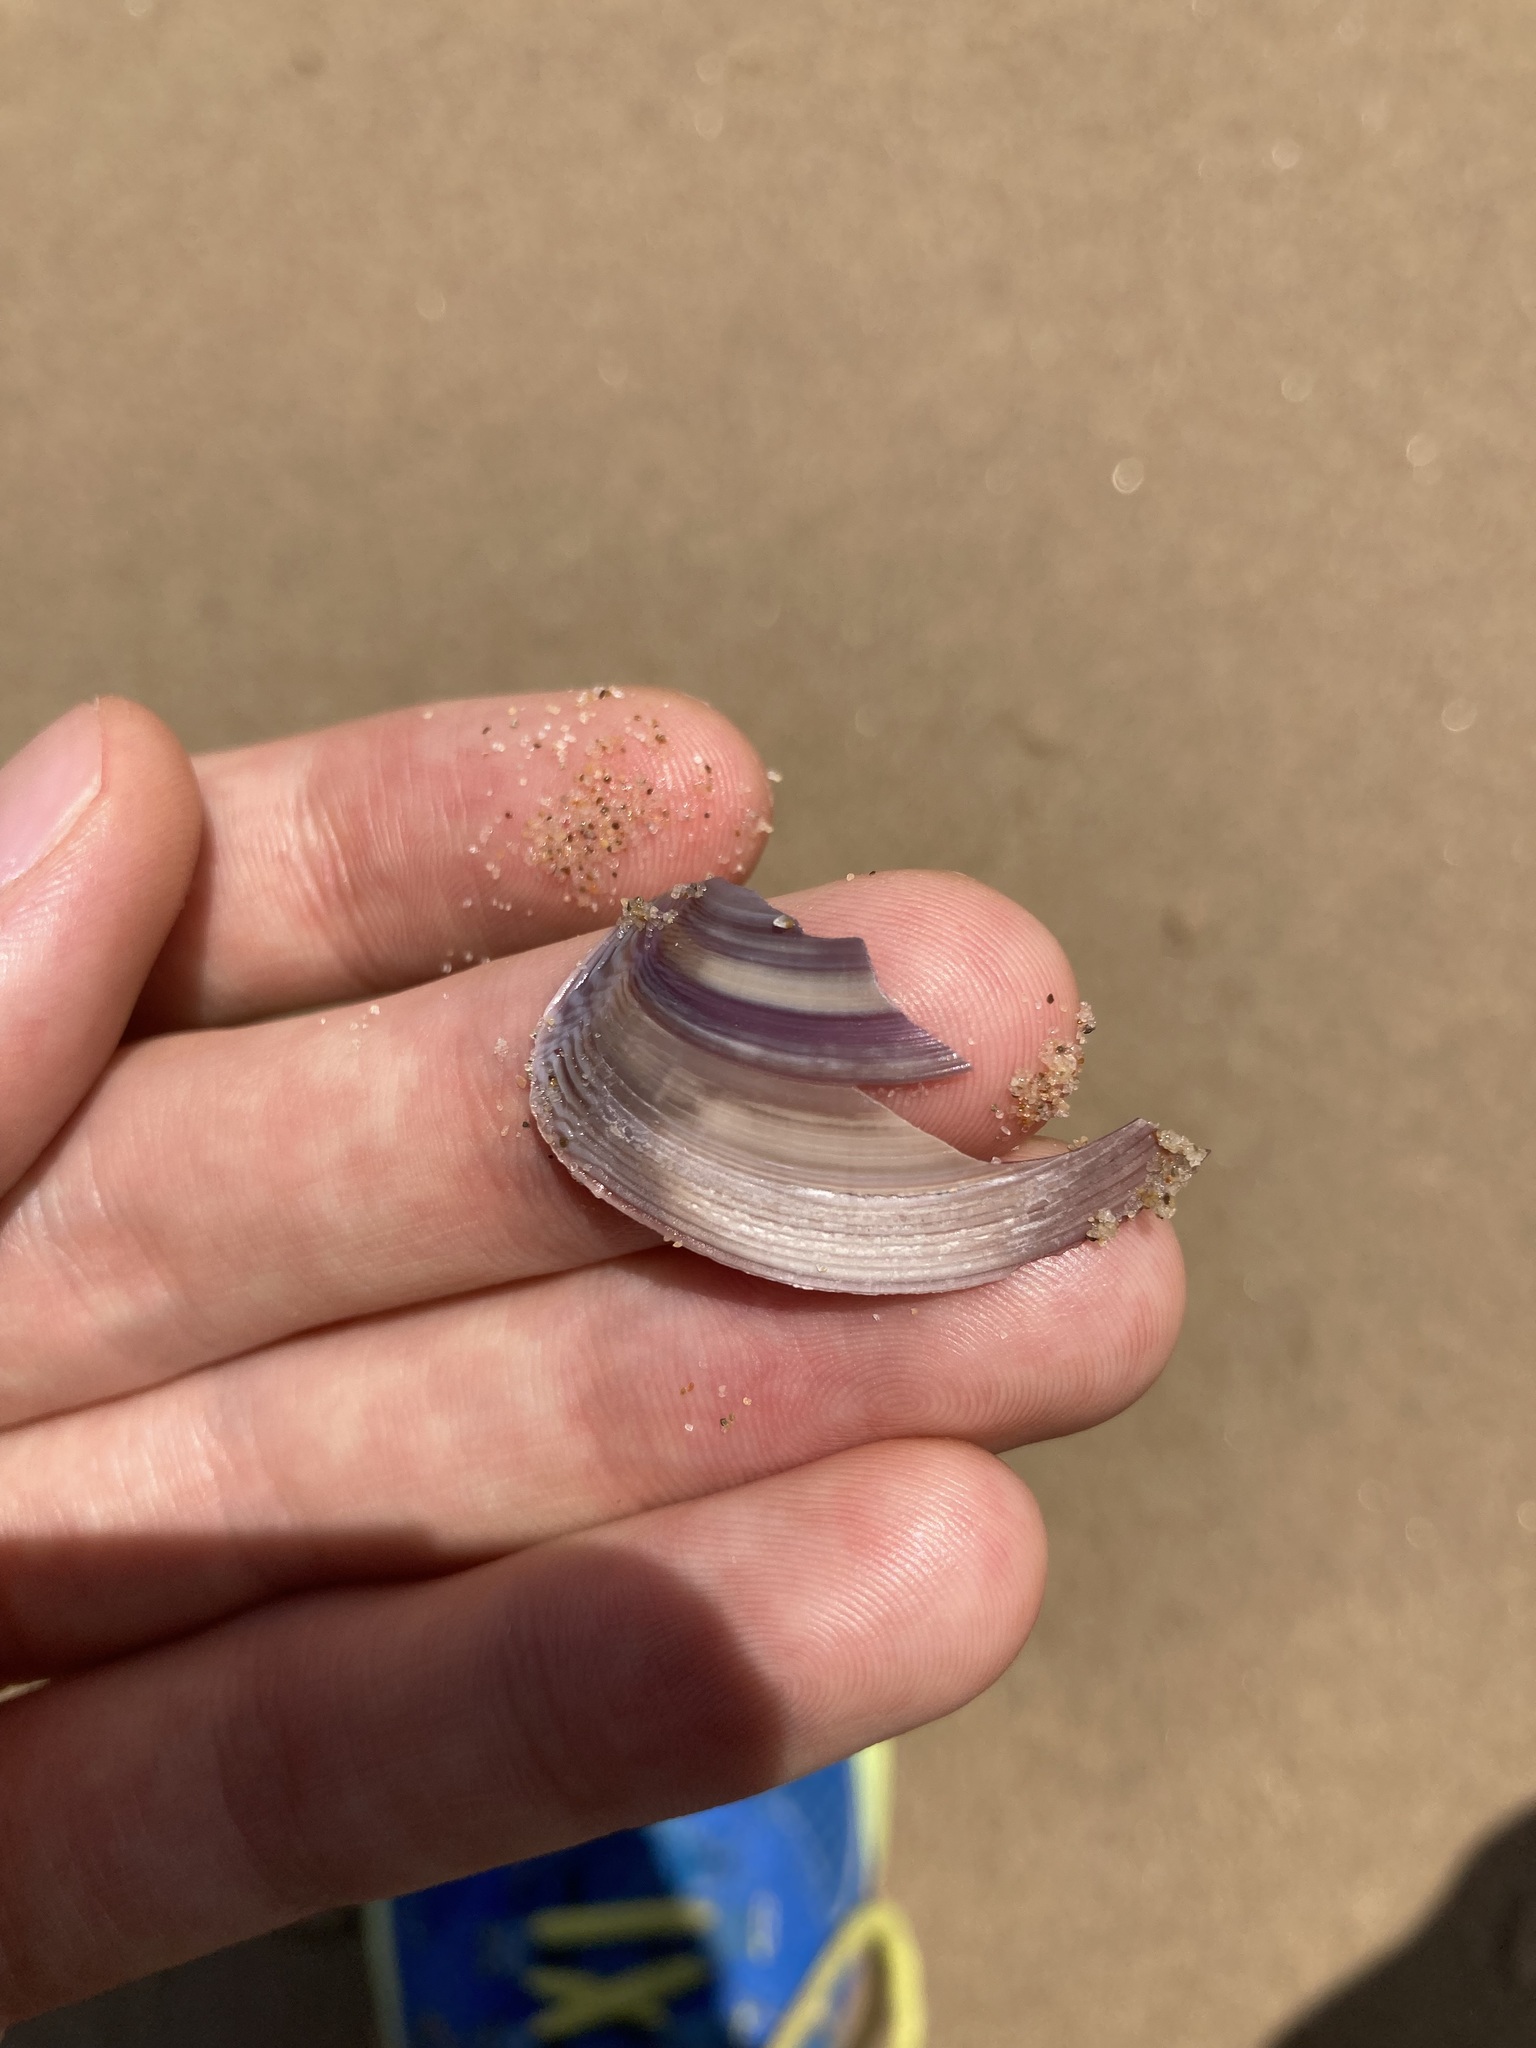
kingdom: Animalia
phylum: Mollusca
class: Bivalvia
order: Venerida
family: Mactridae
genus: Austromactra
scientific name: Austromactra contraria
